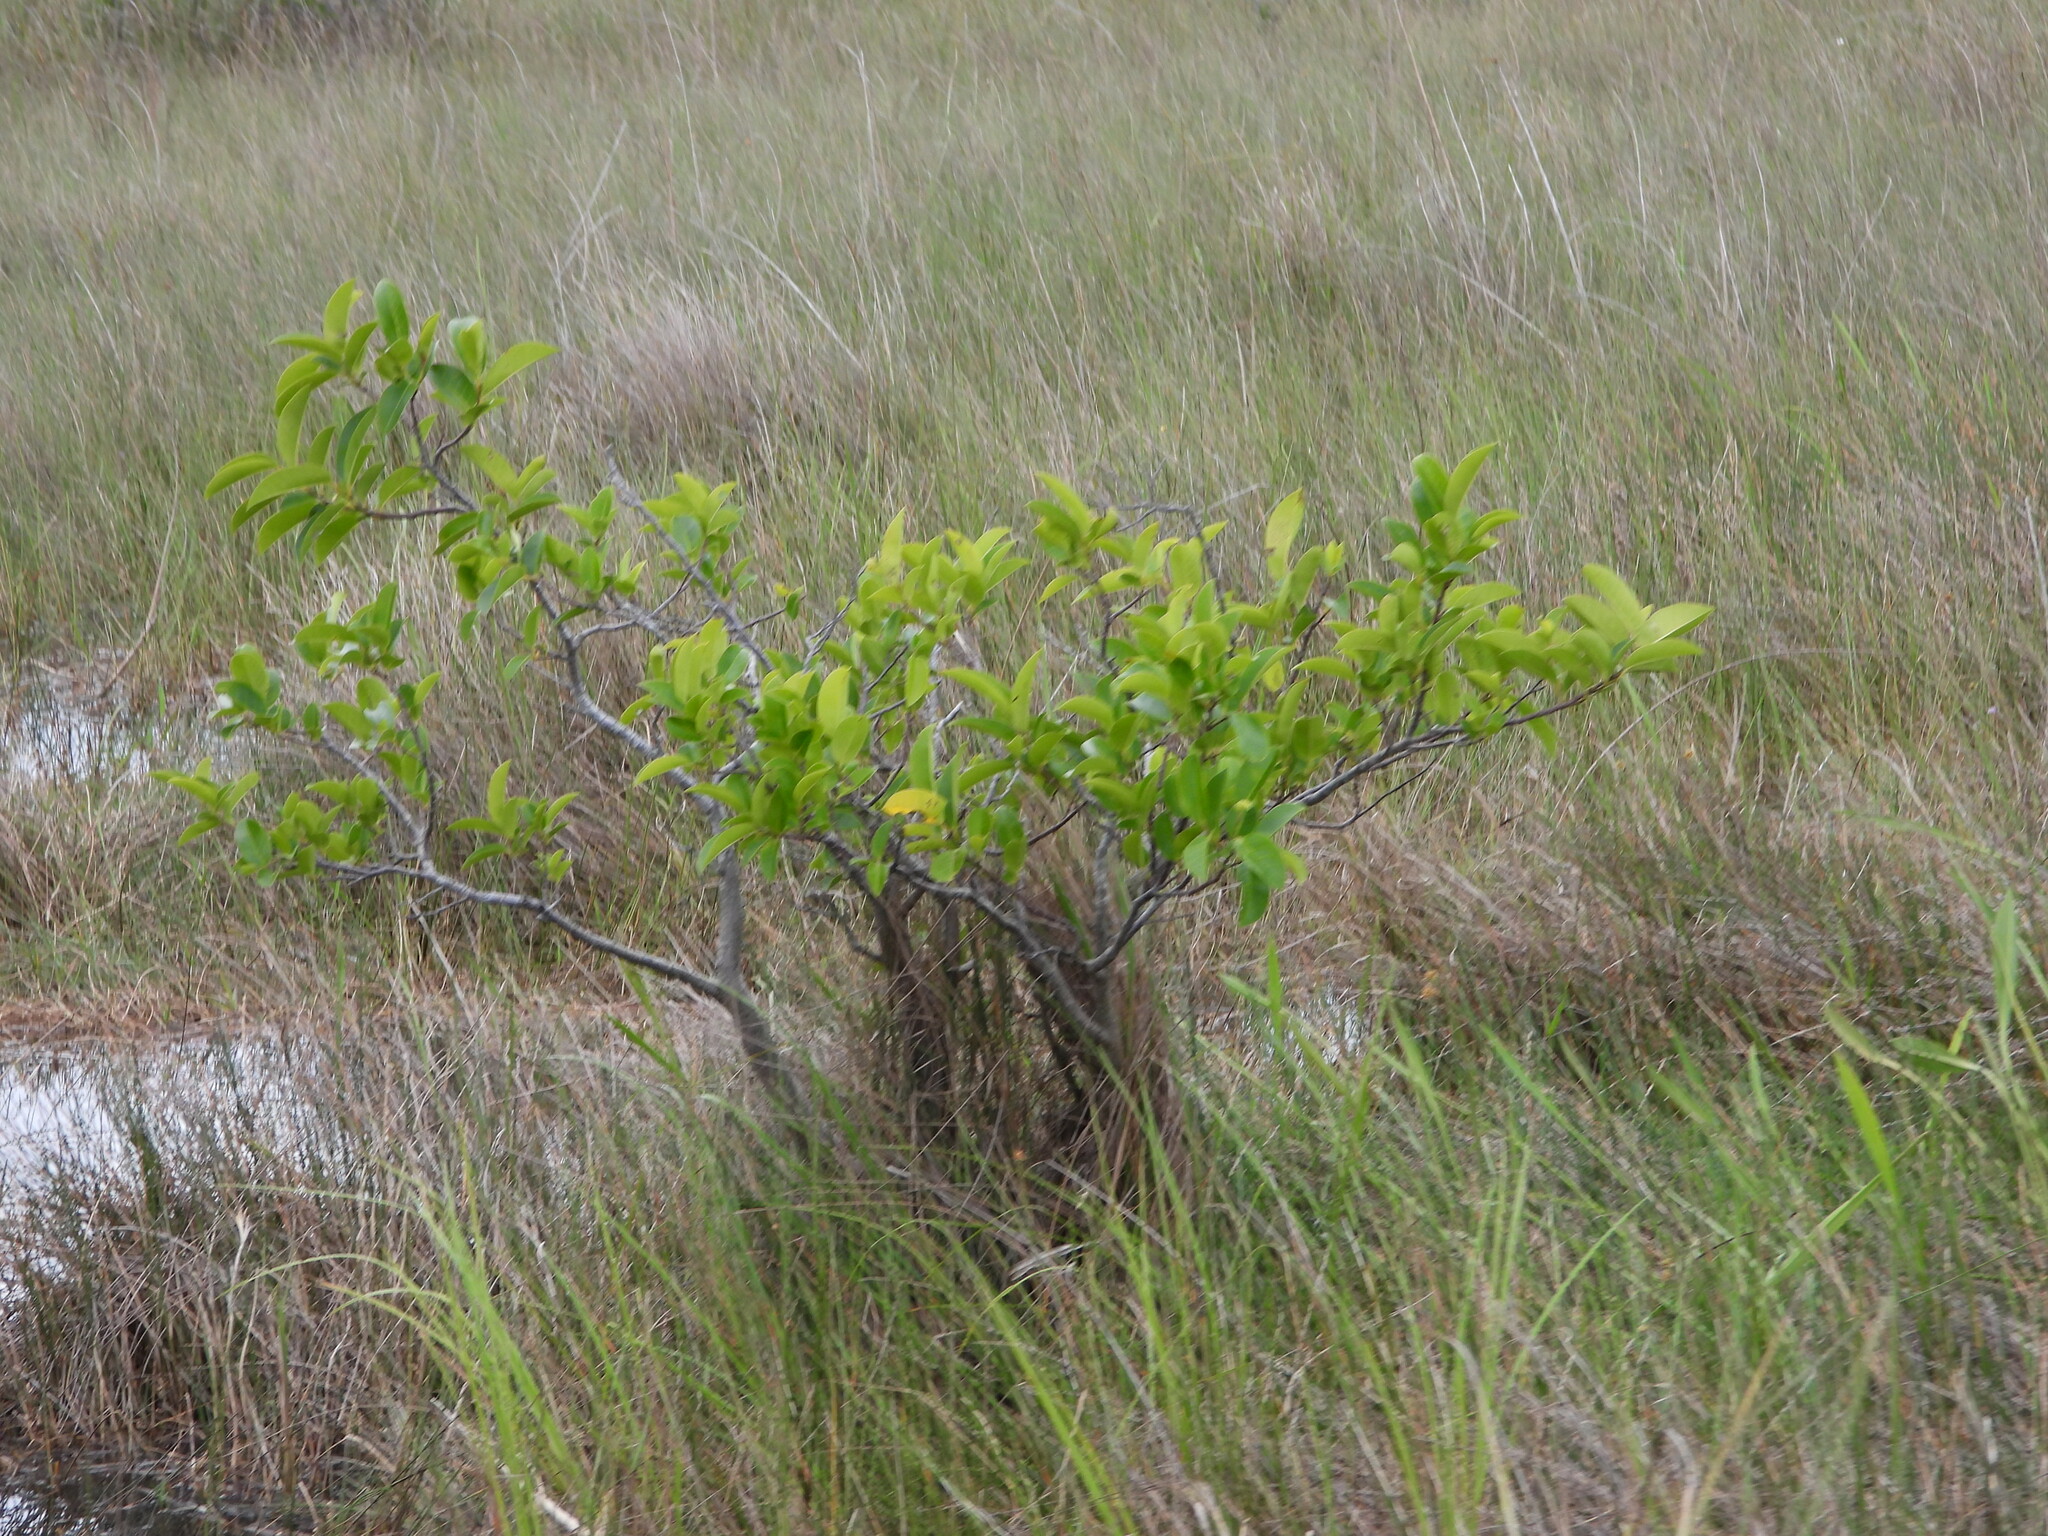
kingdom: Plantae
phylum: Tracheophyta
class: Magnoliopsida
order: Magnoliales
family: Annonaceae
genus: Annona
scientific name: Annona glabra
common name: Monkey apple
